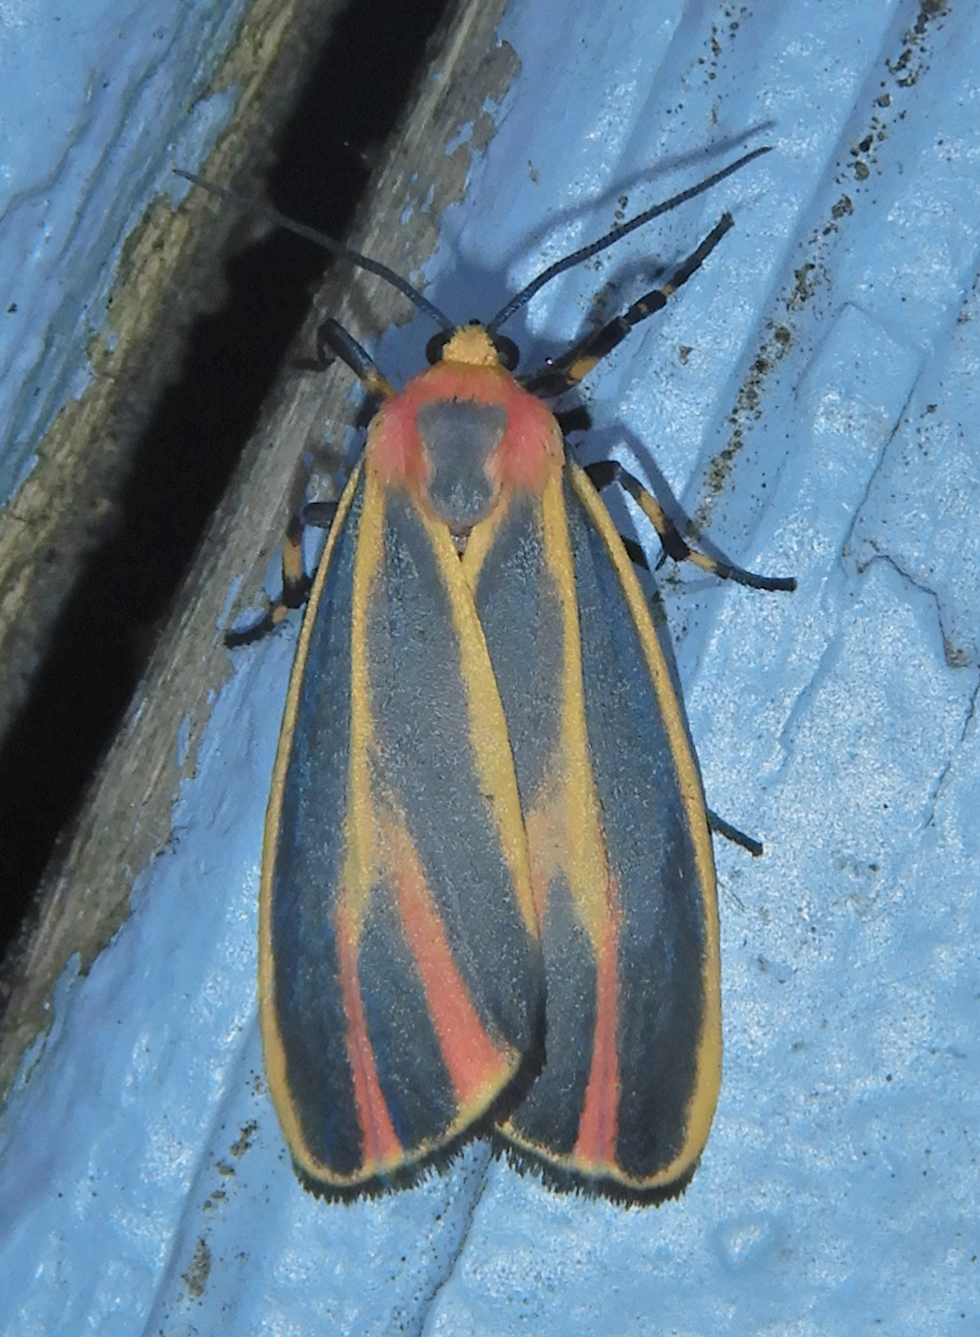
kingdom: Animalia
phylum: Arthropoda
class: Insecta
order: Lepidoptera
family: Erebidae
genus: Hypoprepia
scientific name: Hypoprepia fucosa
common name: Painted lichen moth
